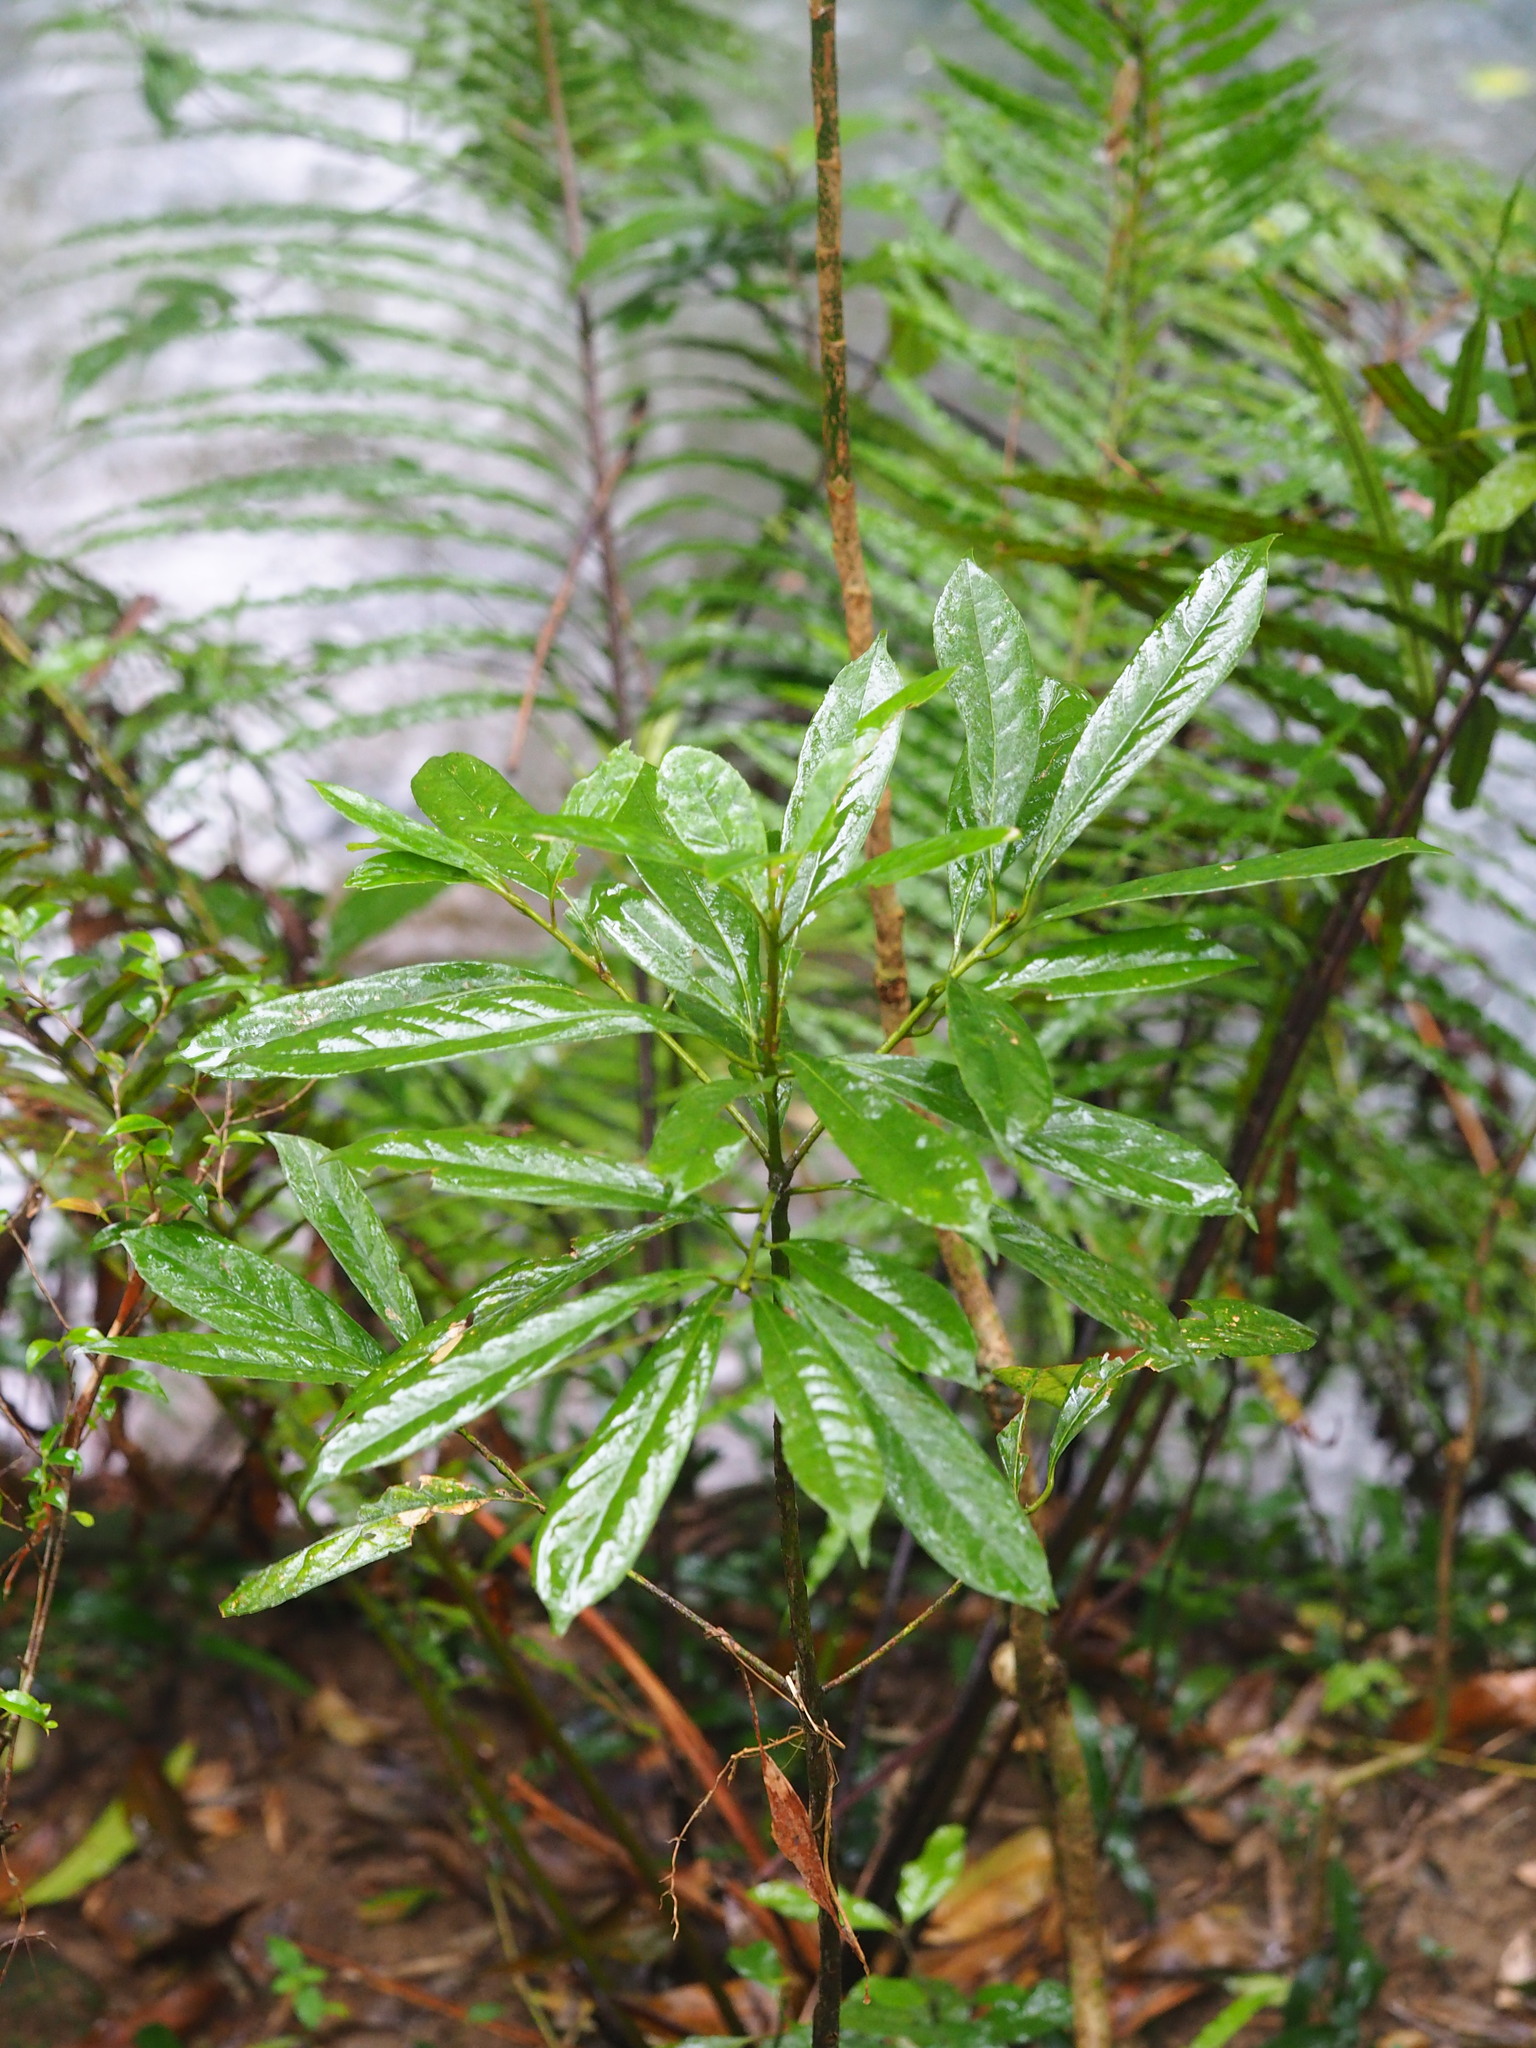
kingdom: Plantae
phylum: Tracheophyta
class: Magnoliopsida
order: Ericales
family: Symplocaceae
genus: Symplocos
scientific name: Symplocos glauca
